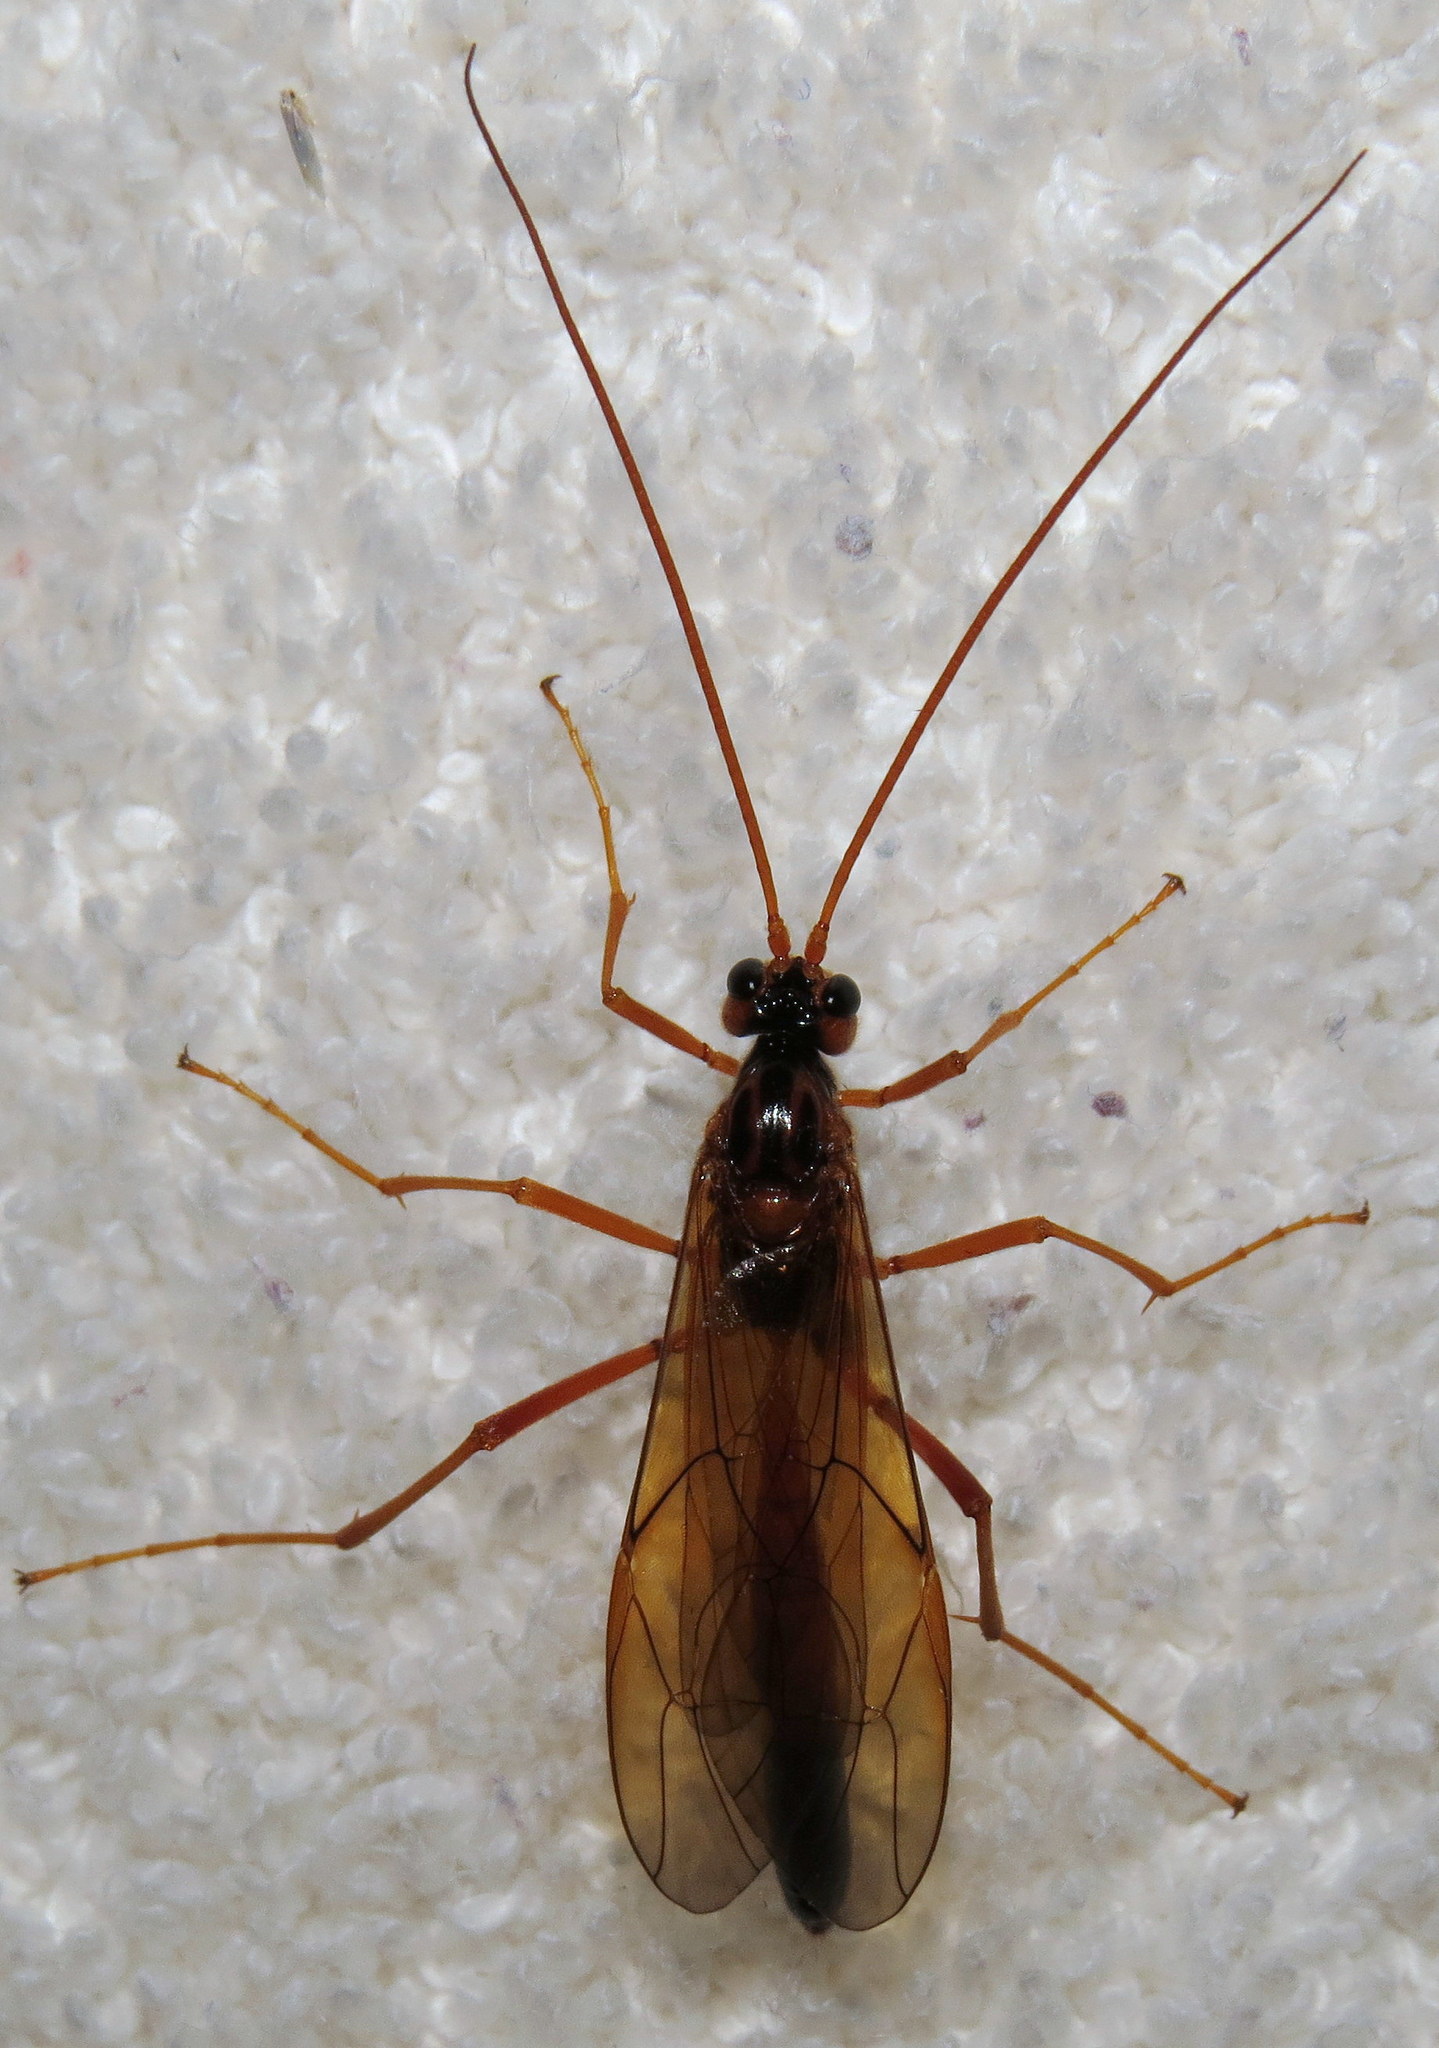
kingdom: Animalia
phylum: Arthropoda
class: Insecta
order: Hymenoptera
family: Ichneumonidae
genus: Opheltes
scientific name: Opheltes glaucopterus
